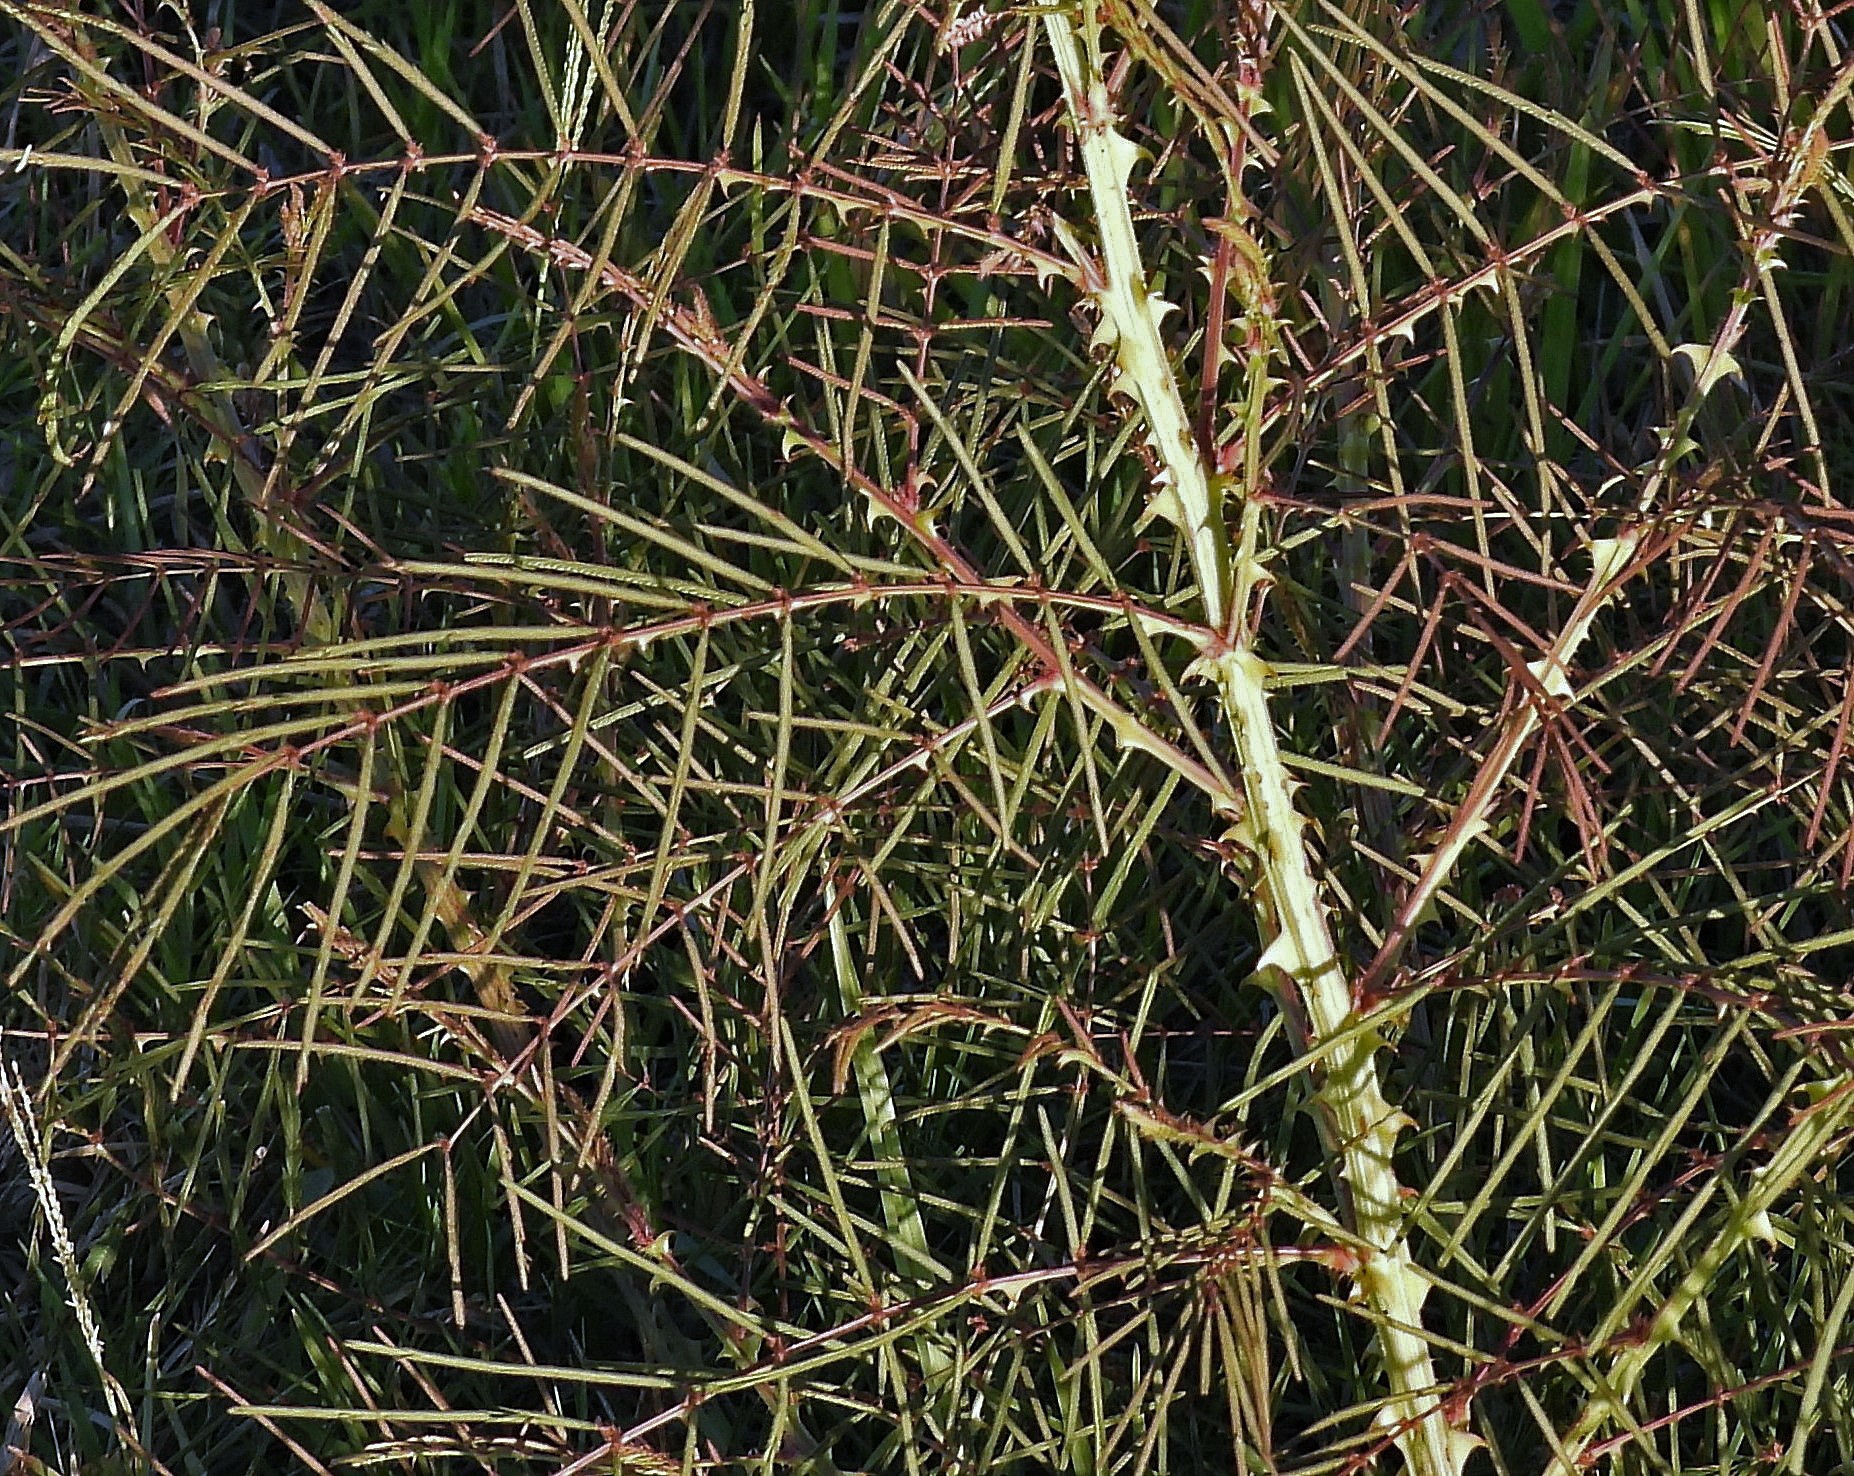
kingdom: Plantae
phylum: Tracheophyta
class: Magnoliopsida
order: Fabales
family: Fabaceae
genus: Mimosa
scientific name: Mimosa somnians
